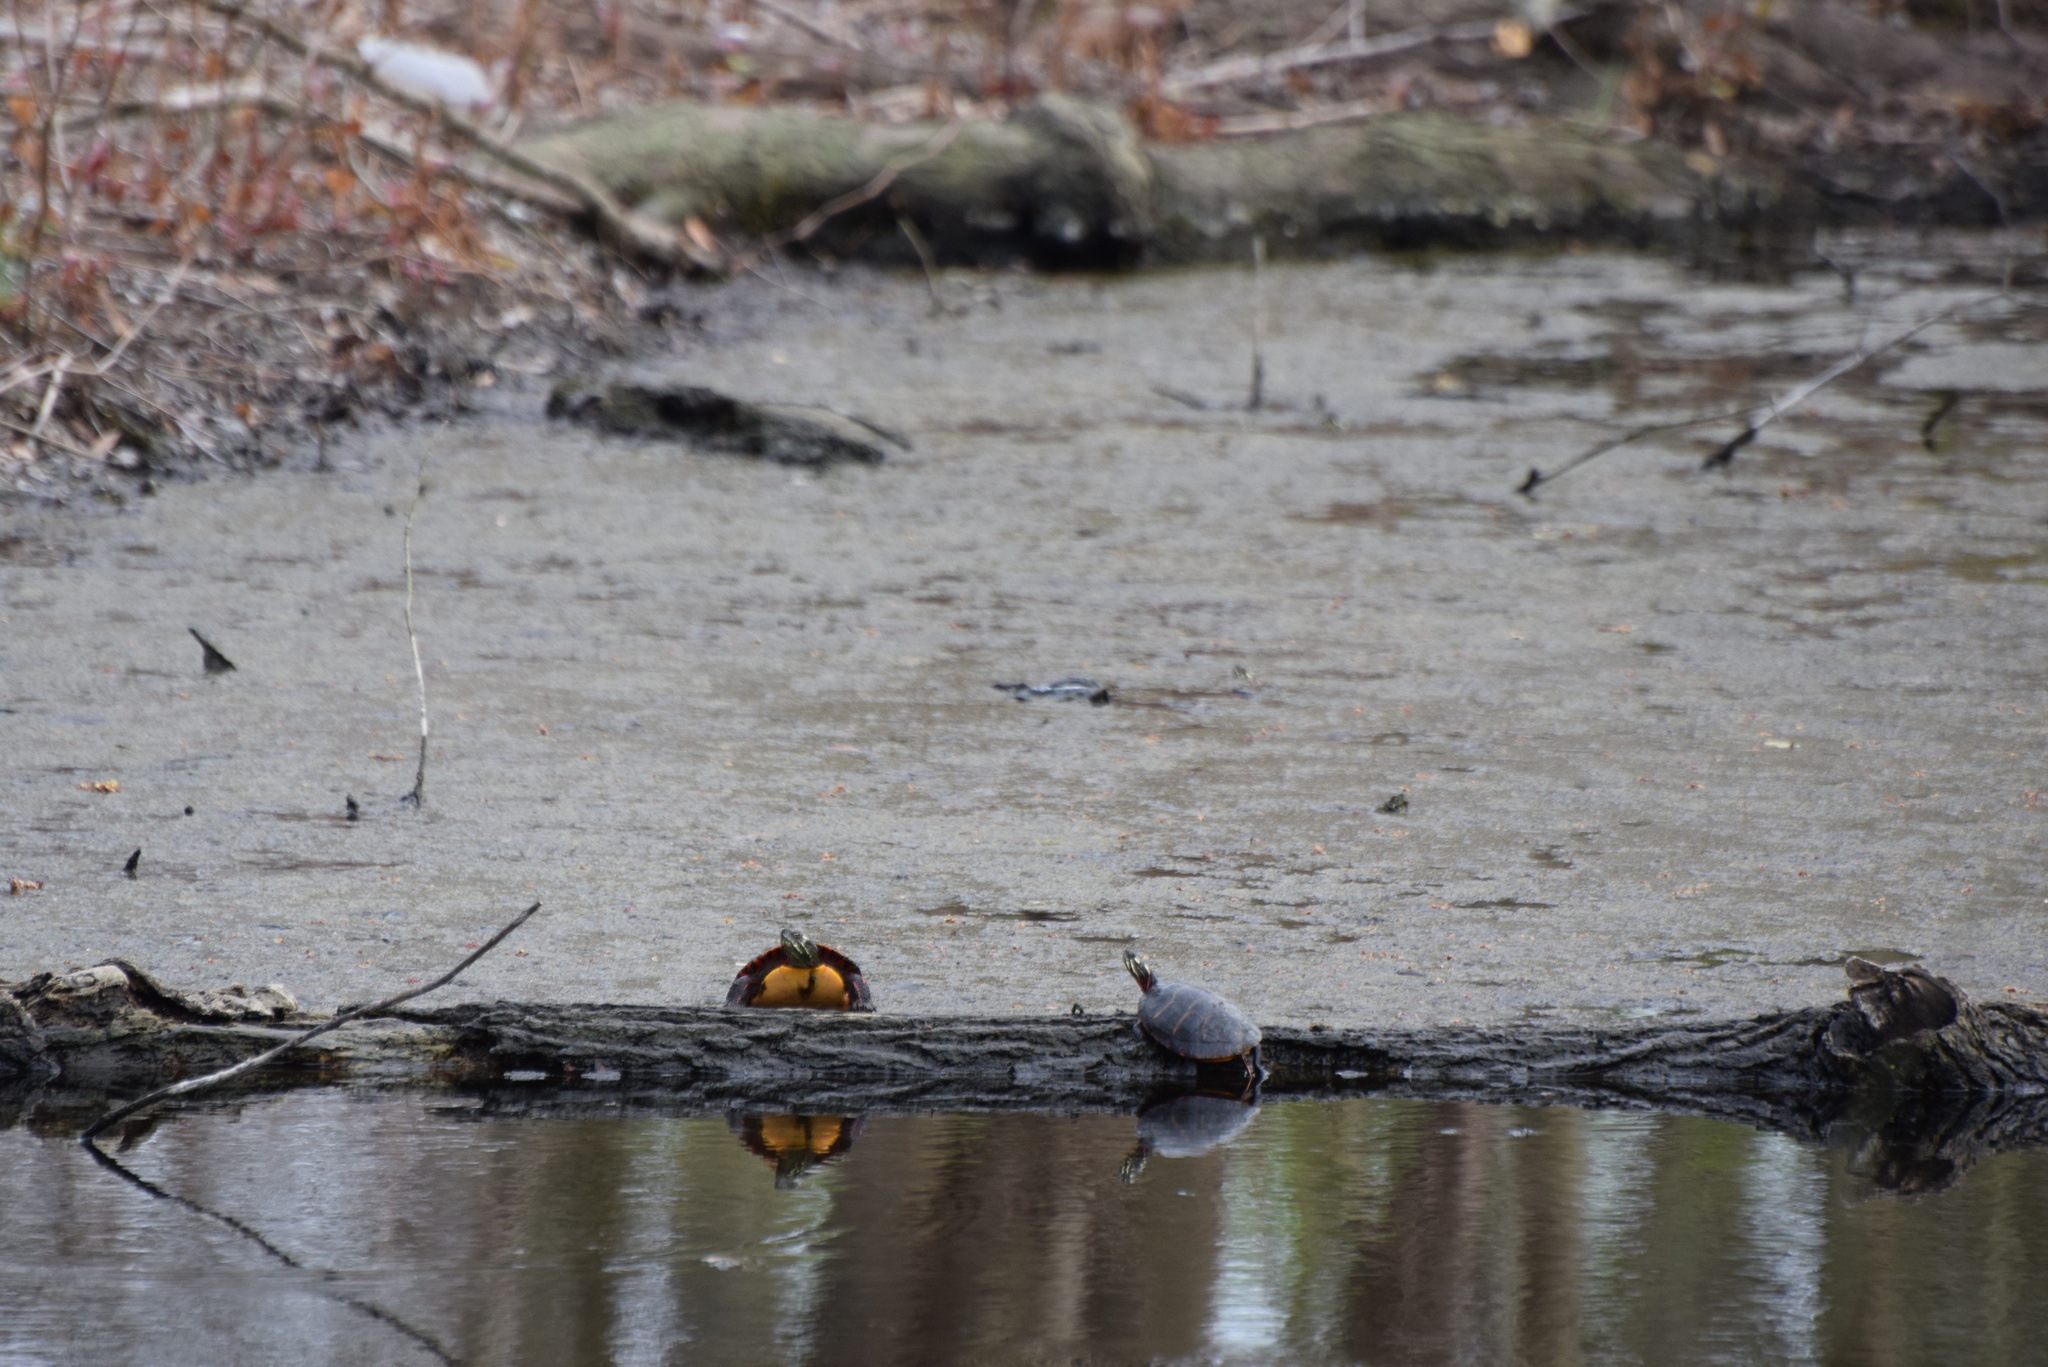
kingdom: Animalia
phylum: Chordata
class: Testudines
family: Emydidae
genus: Chrysemys
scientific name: Chrysemys picta
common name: Painted turtle
